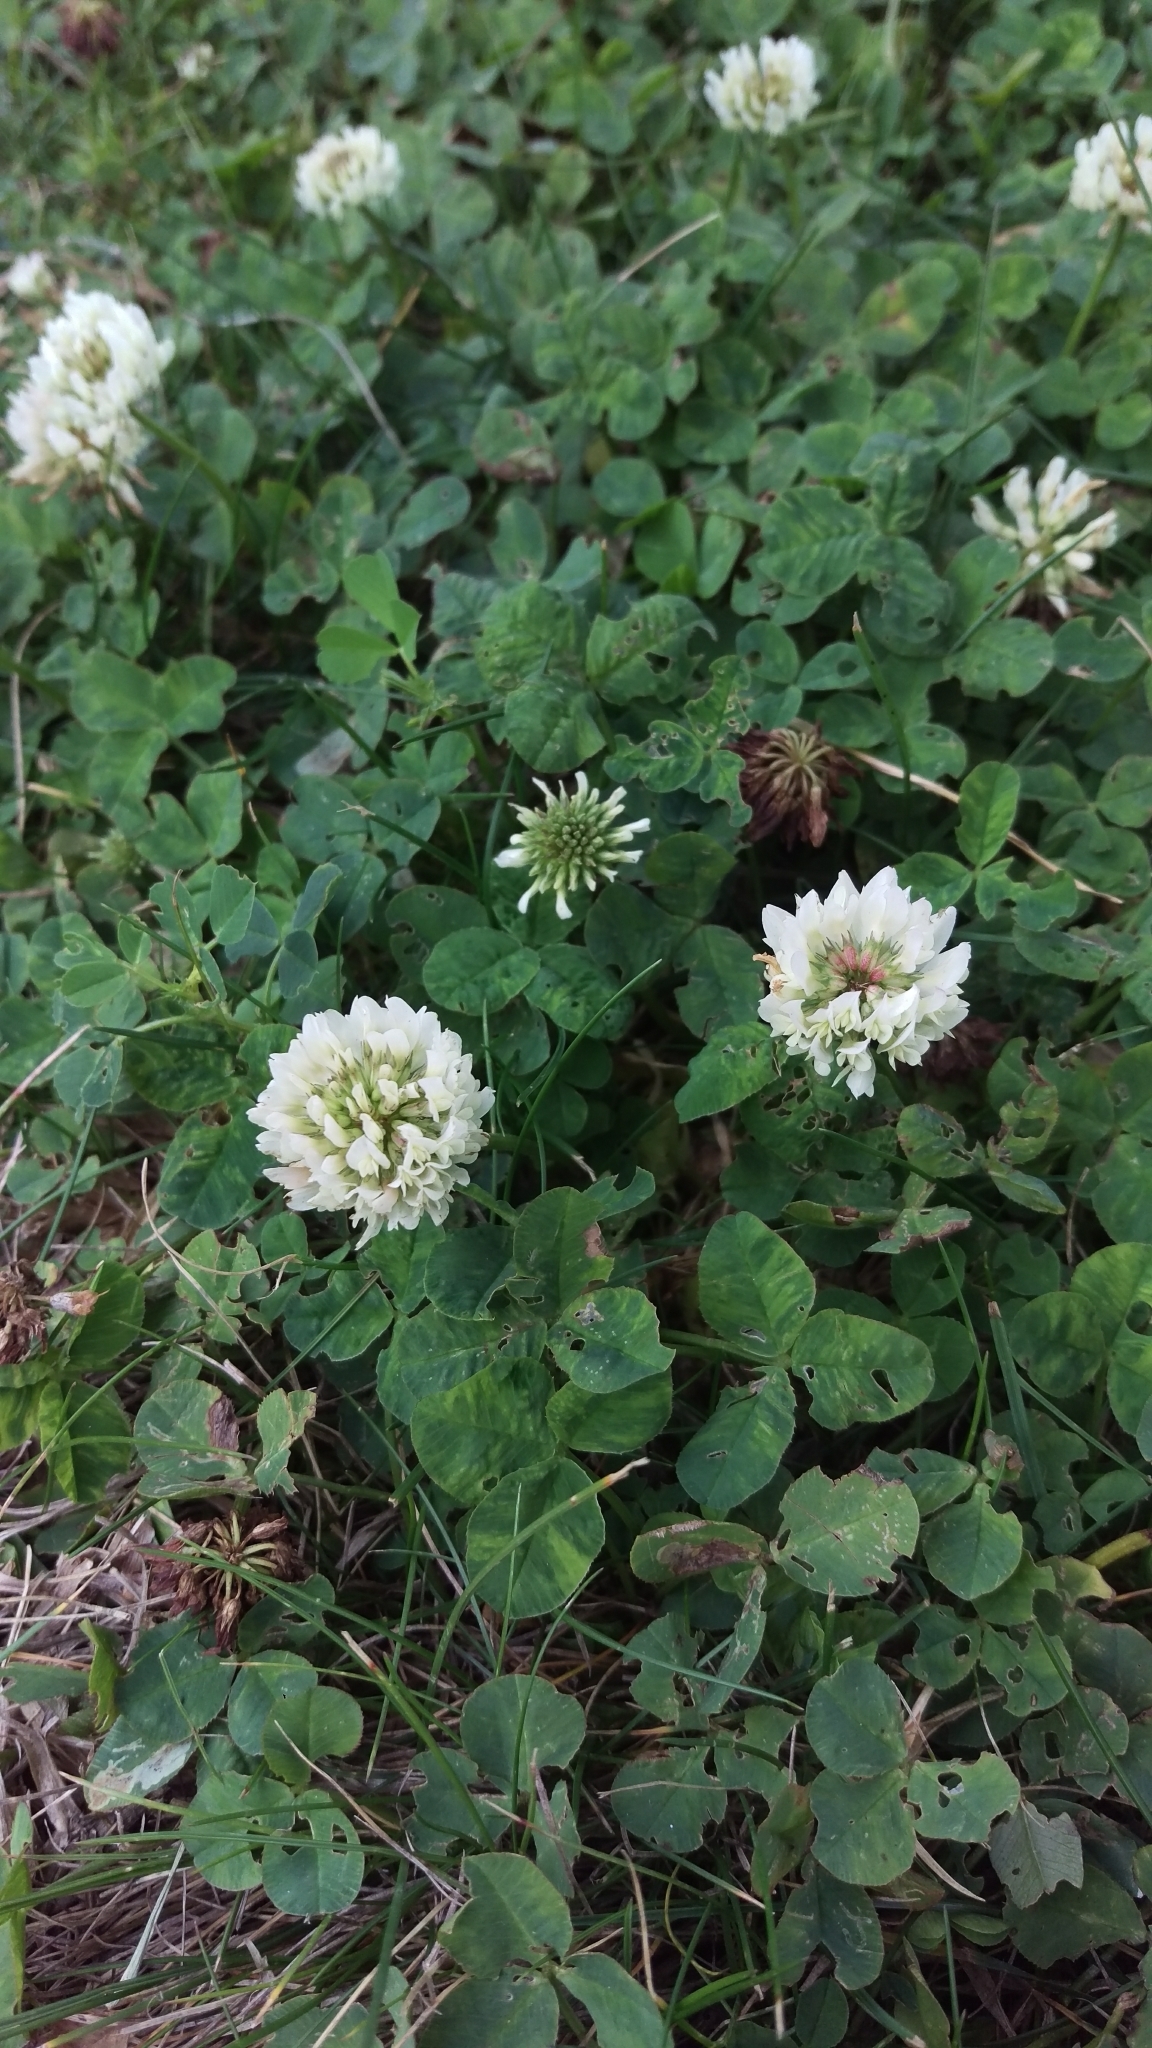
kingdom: Plantae
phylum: Tracheophyta
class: Magnoliopsida
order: Fabales
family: Fabaceae
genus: Trifolium
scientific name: Trifolium repens
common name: White clover
